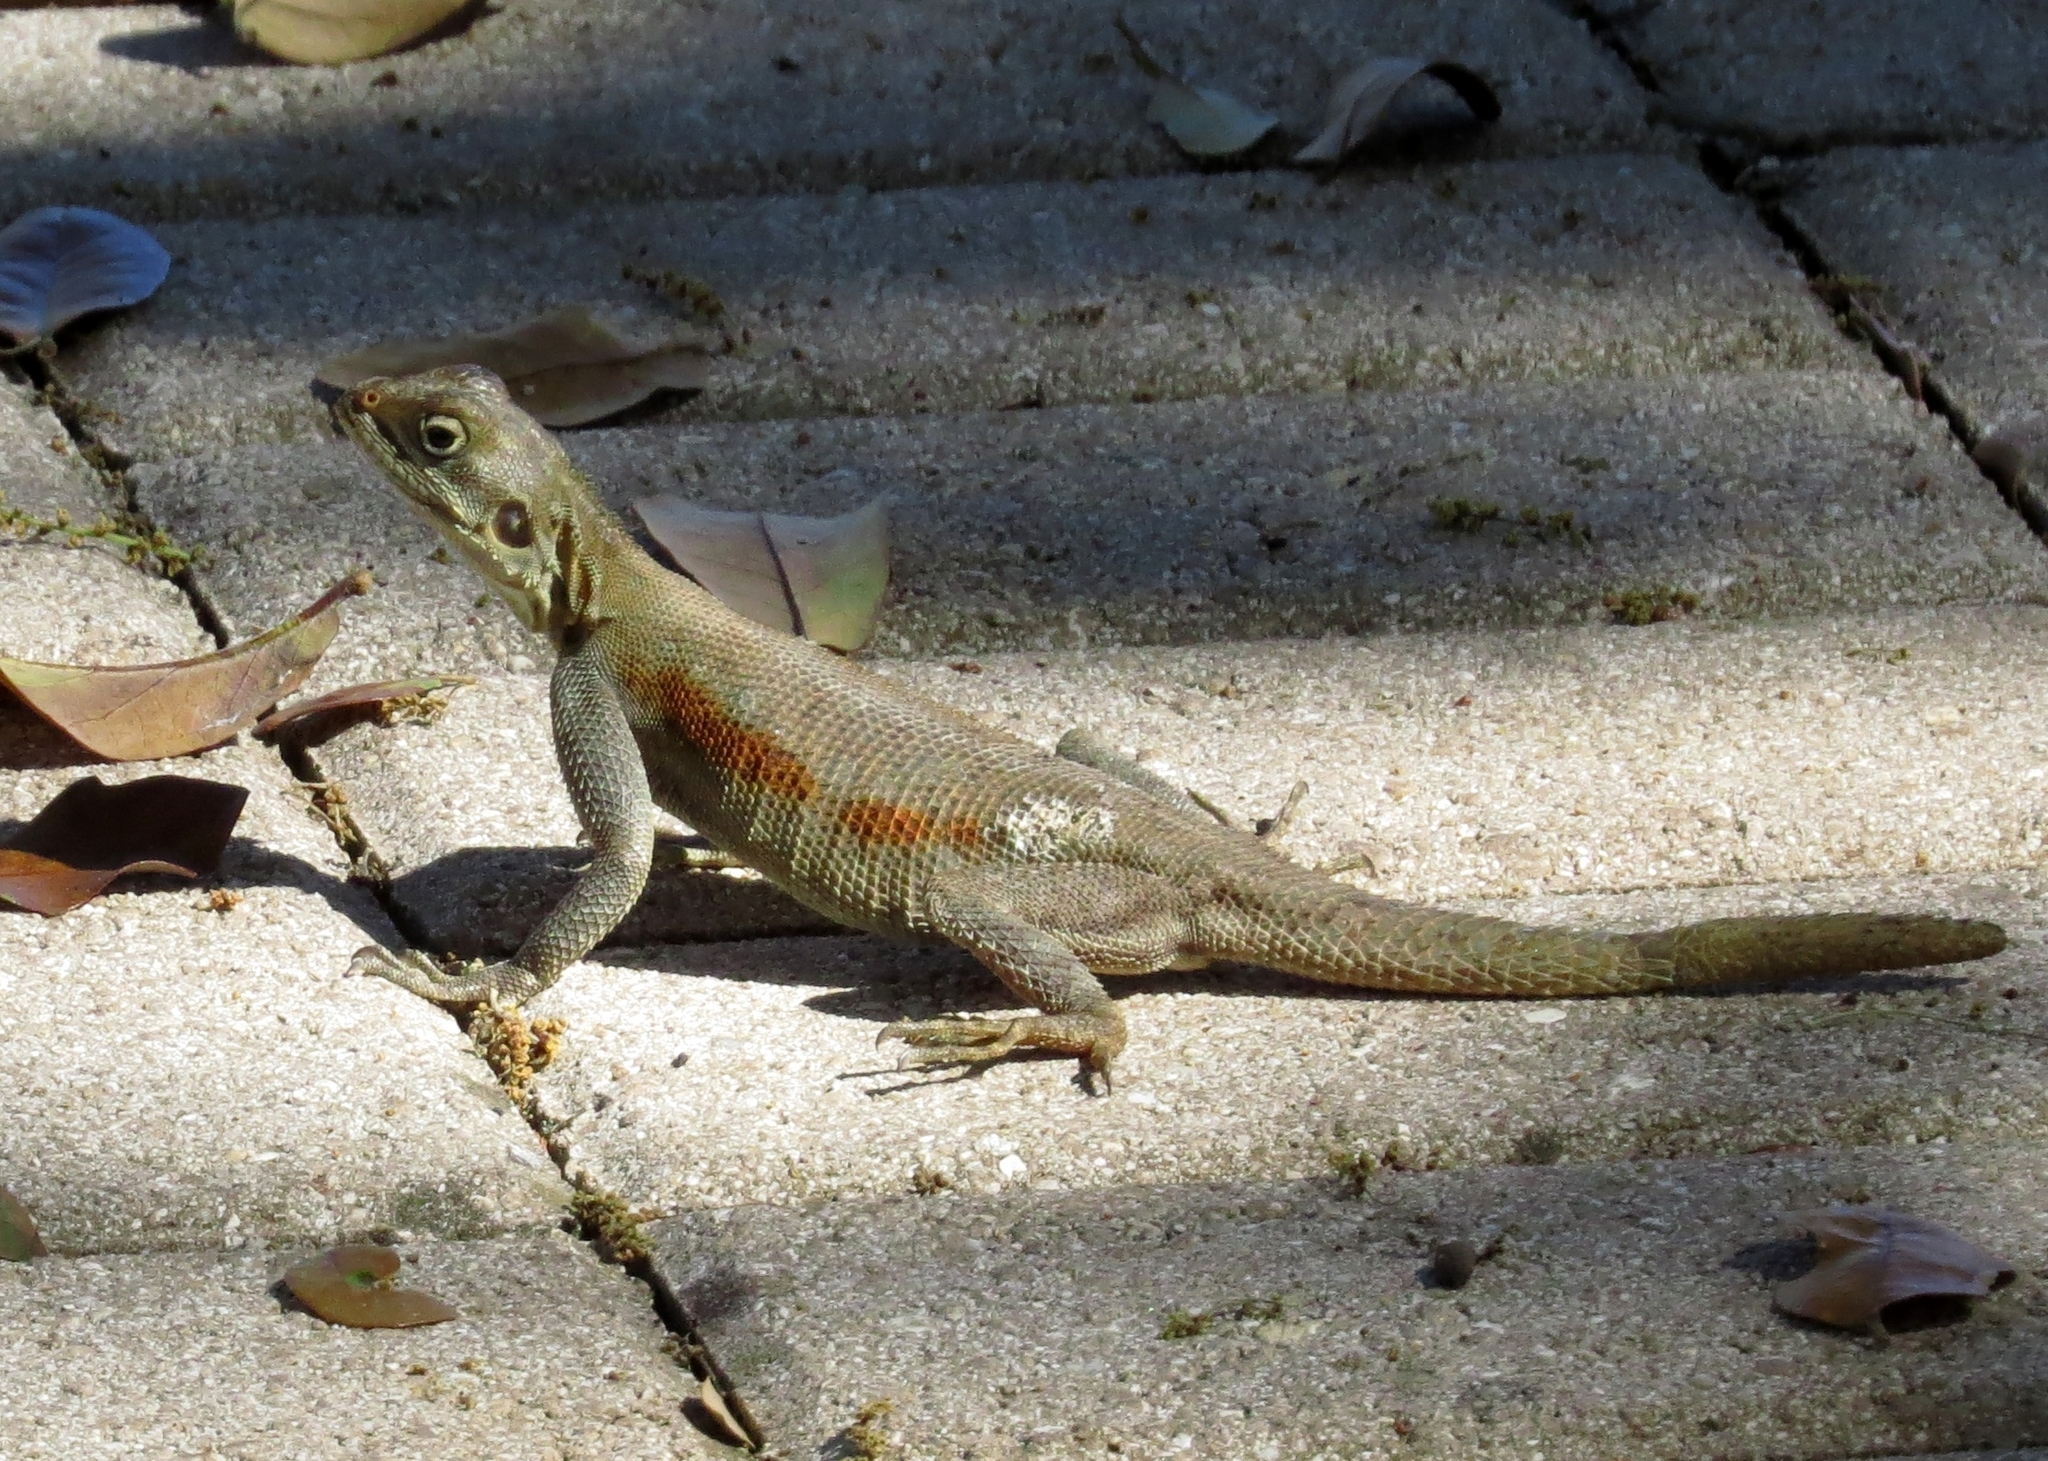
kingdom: Animalia
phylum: Chordata
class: Squamata
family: Agamidae
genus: Agama
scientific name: Agama picticauda
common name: Red-headed agama
